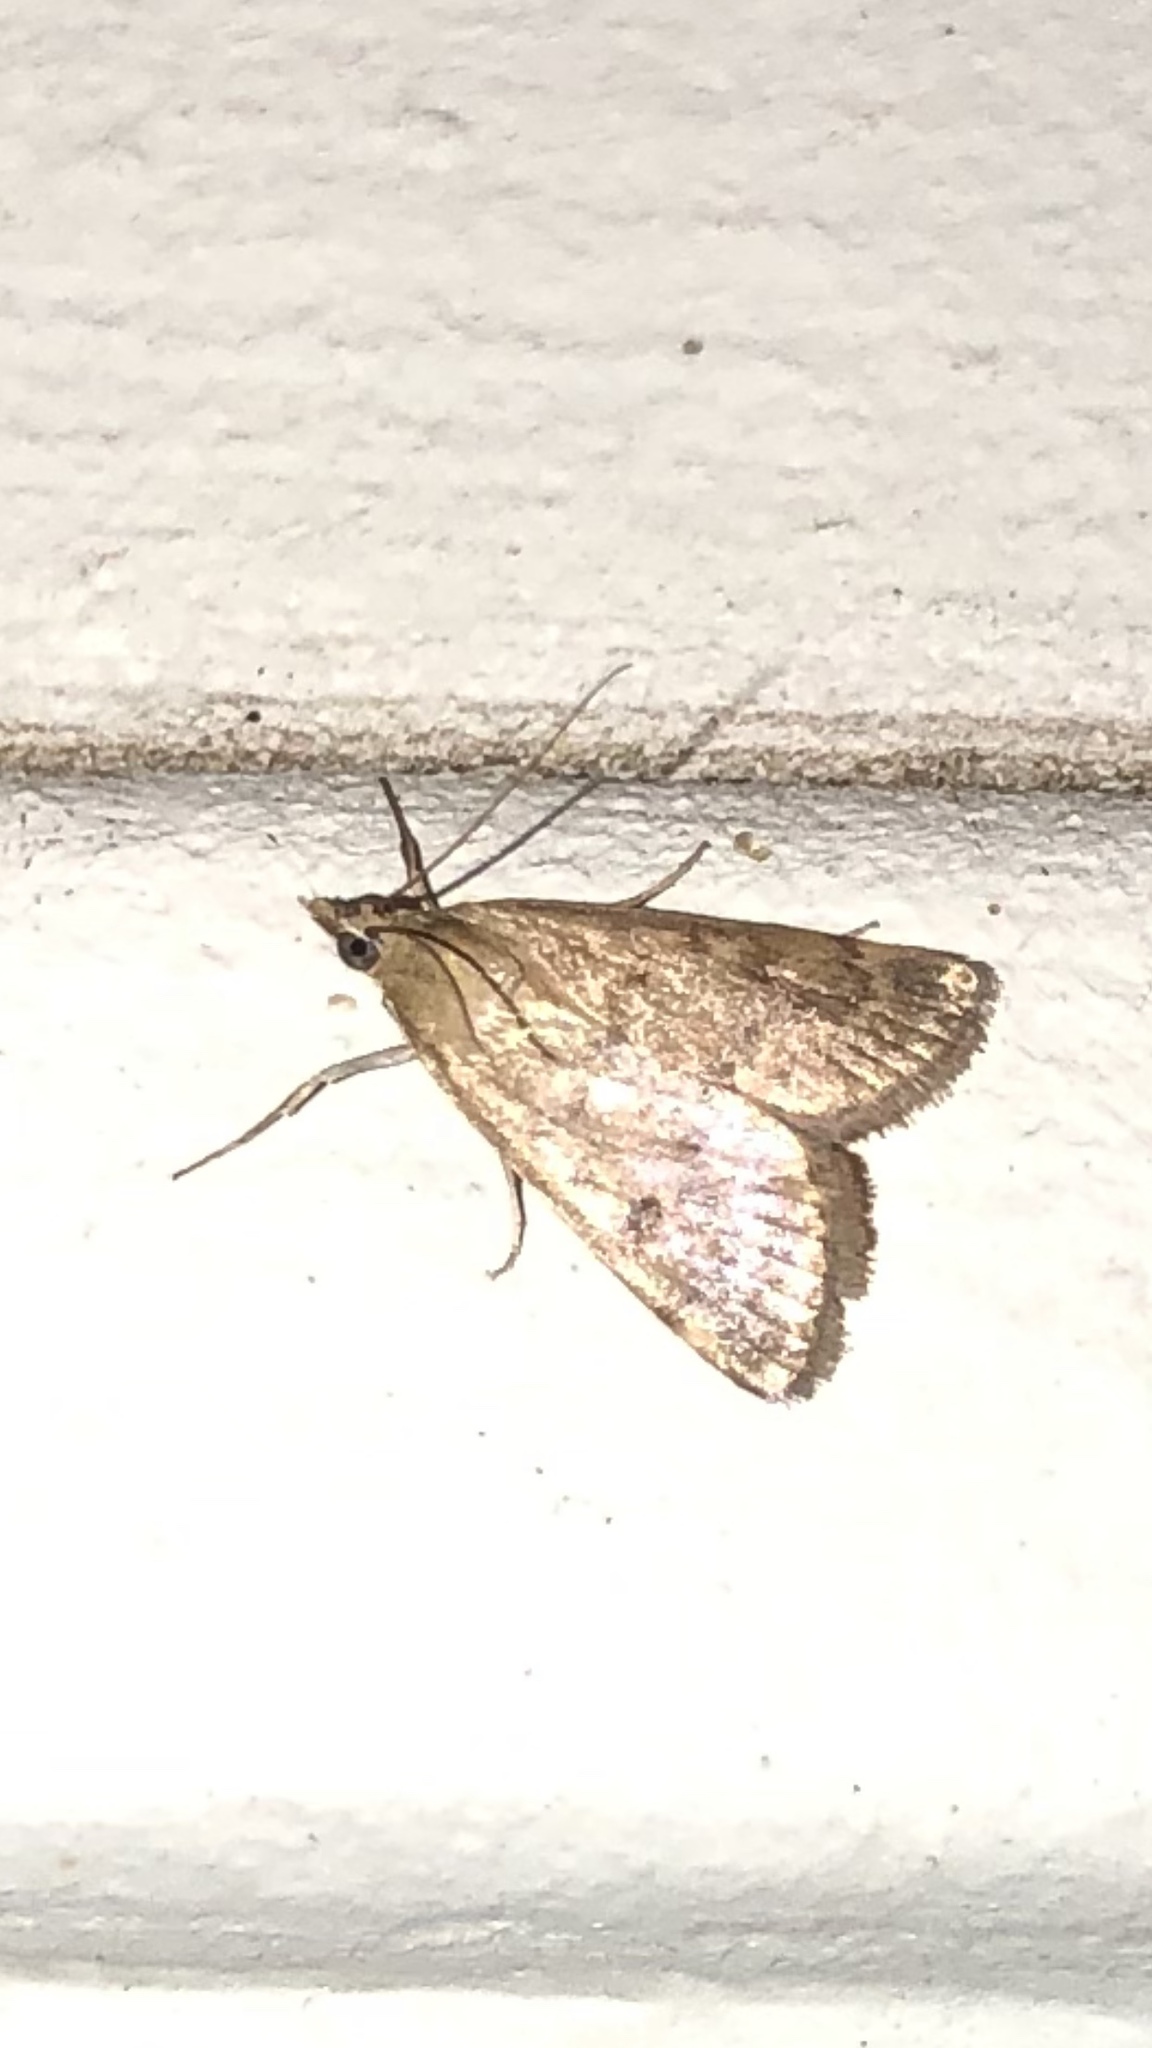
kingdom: Animalia
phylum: Arthropoda
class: Insecta
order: Lepidoptera
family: Crambidae
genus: Achyra
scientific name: Achyra rantalis
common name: Garden webworm
